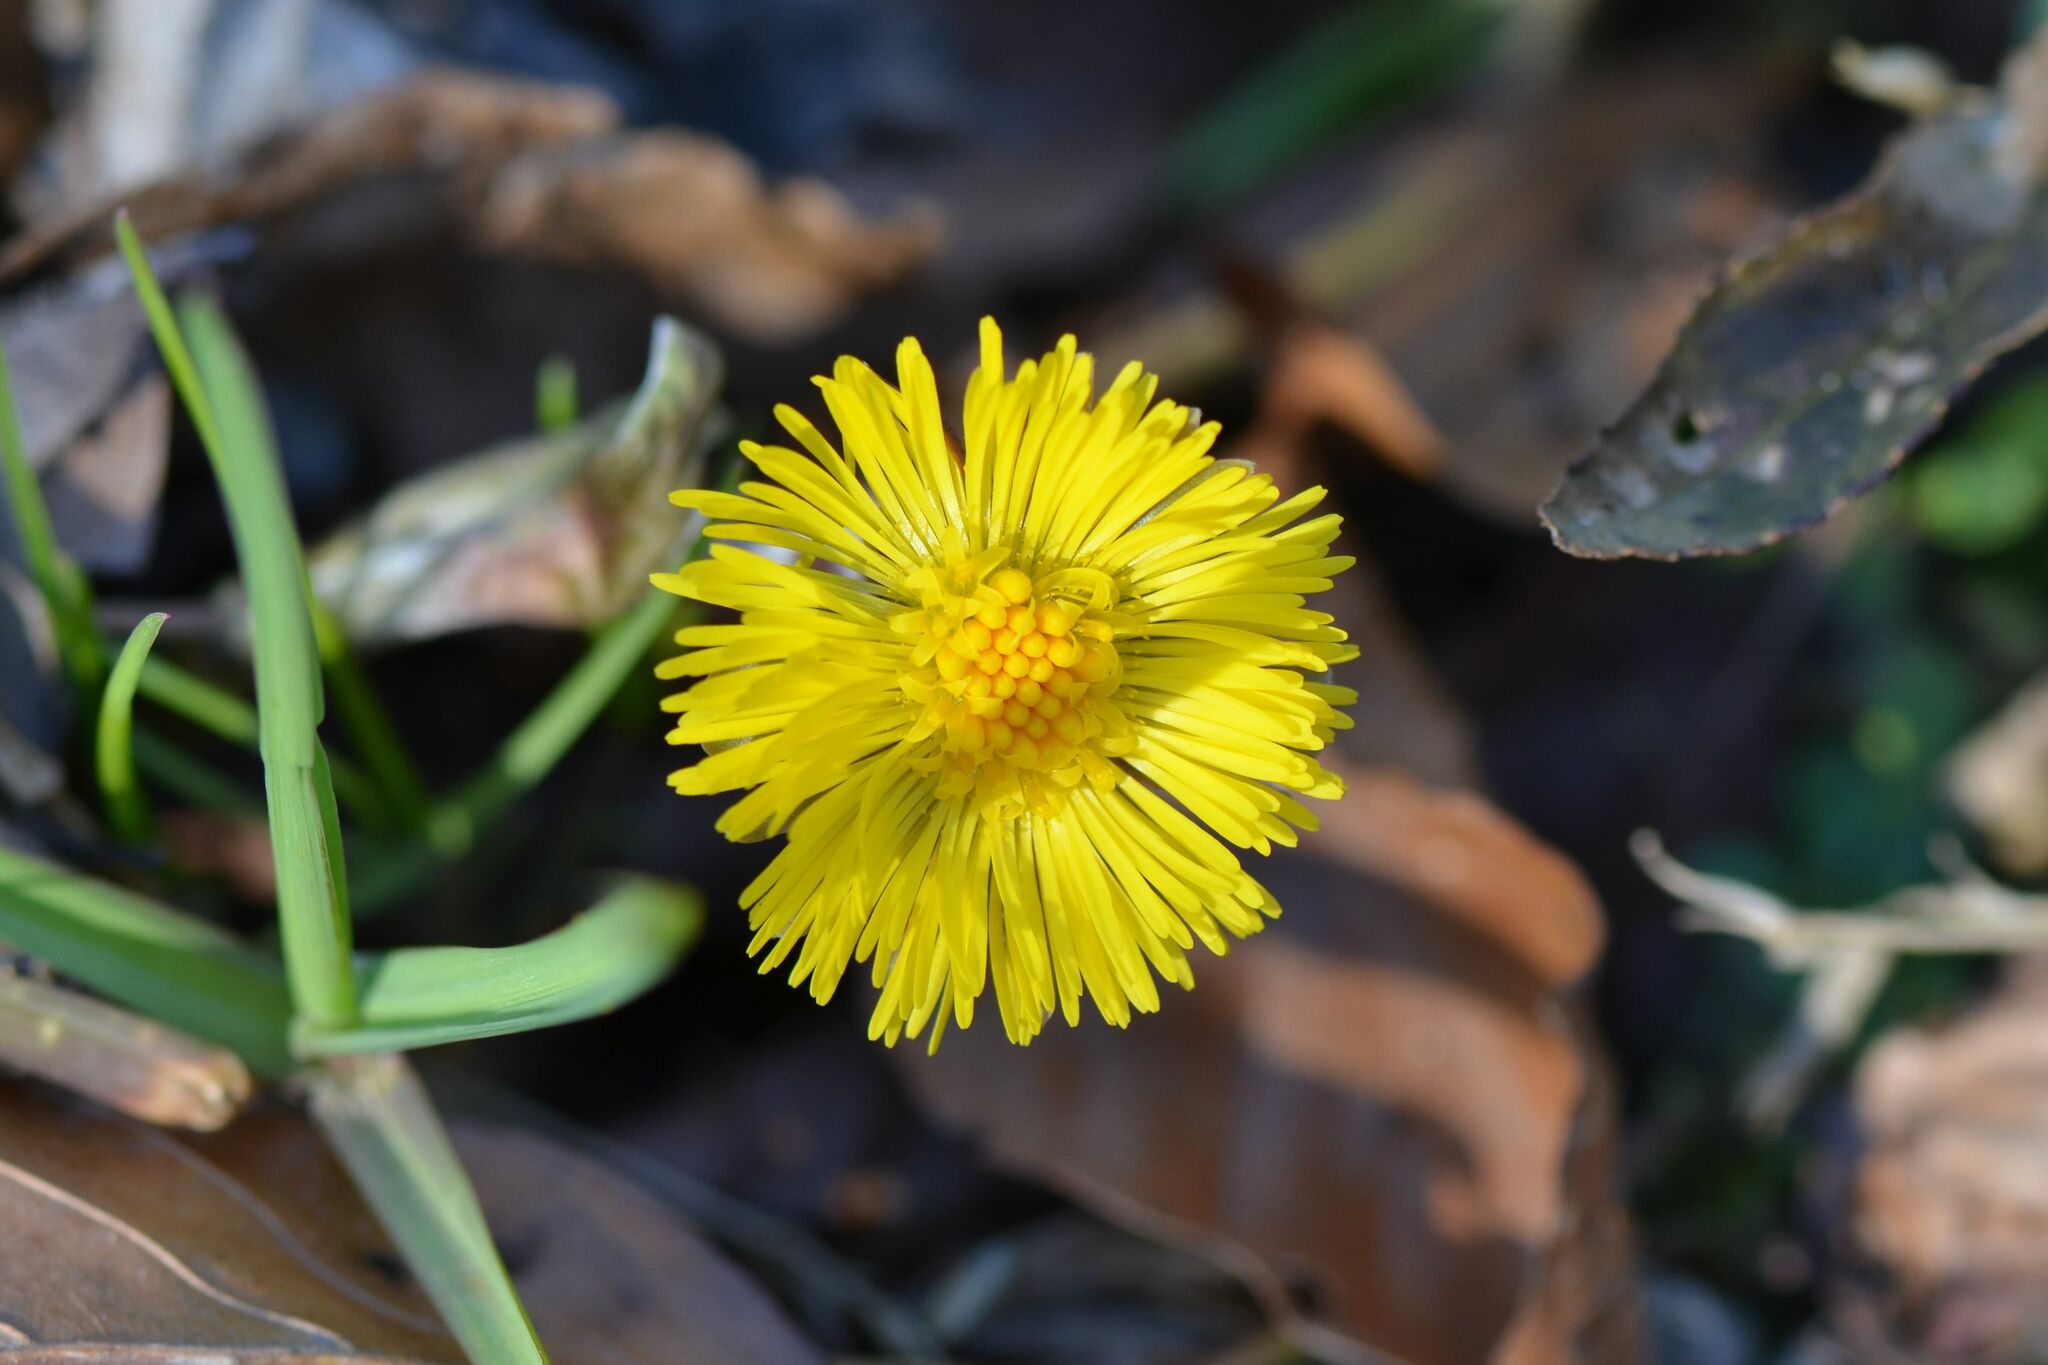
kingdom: Plantae
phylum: Tracheophyta
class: Magnoliopsida
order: Asterales
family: Asteraceae
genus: Tussilago
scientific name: Tussilago farfara
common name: Coltsfoot
